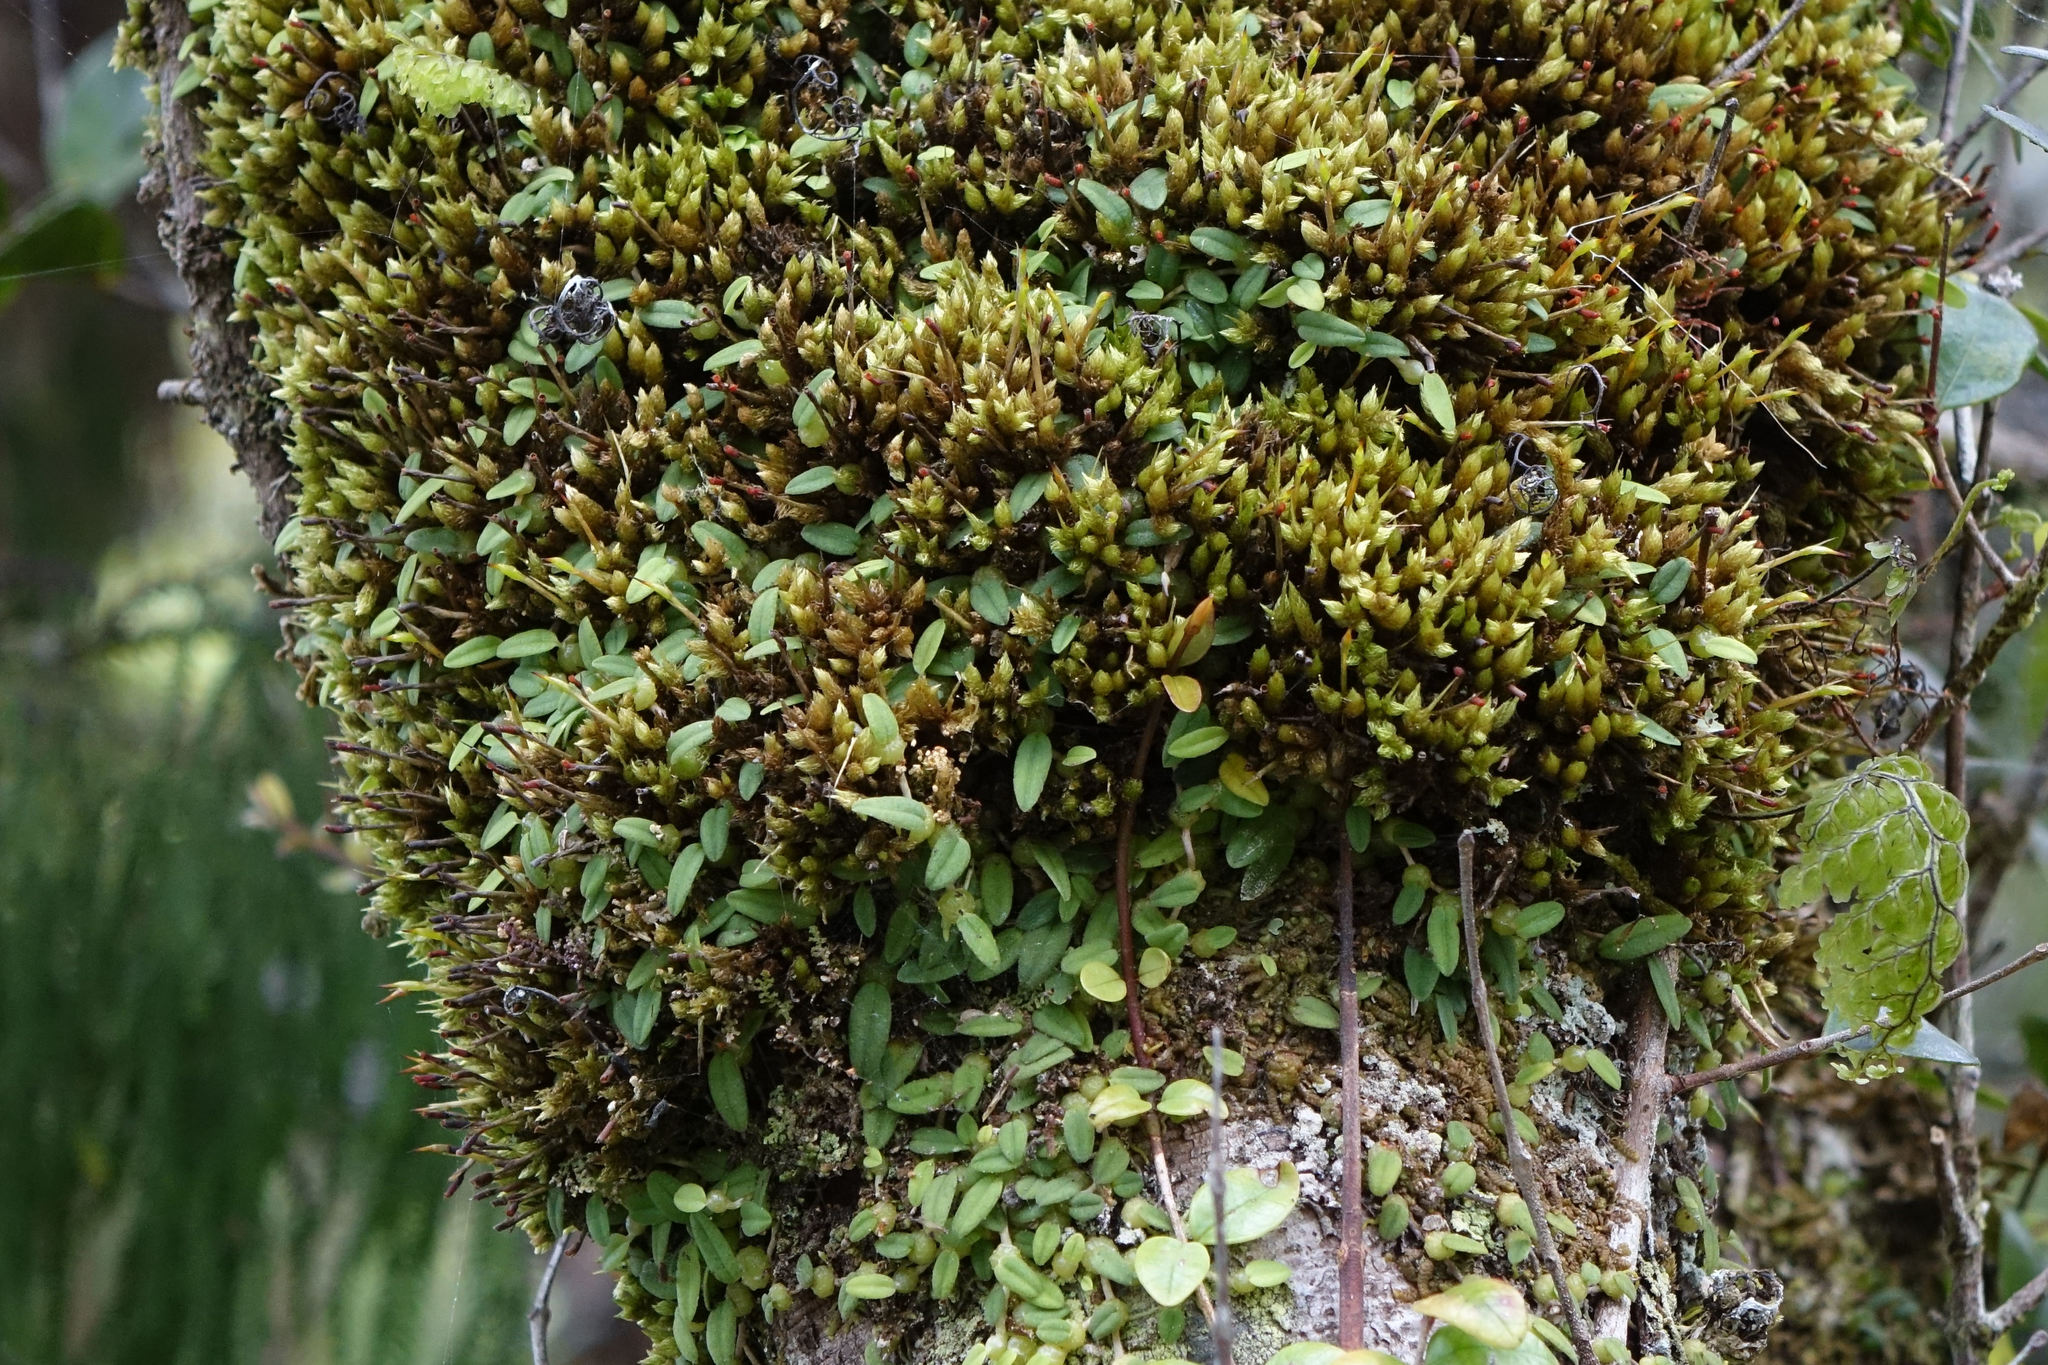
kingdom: Plantae
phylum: Tracheophyta
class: Liliopsida
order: Asparagales
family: Orchidaceae
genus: Bulbophyllum
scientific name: Bulbophyllum pygmaeum
